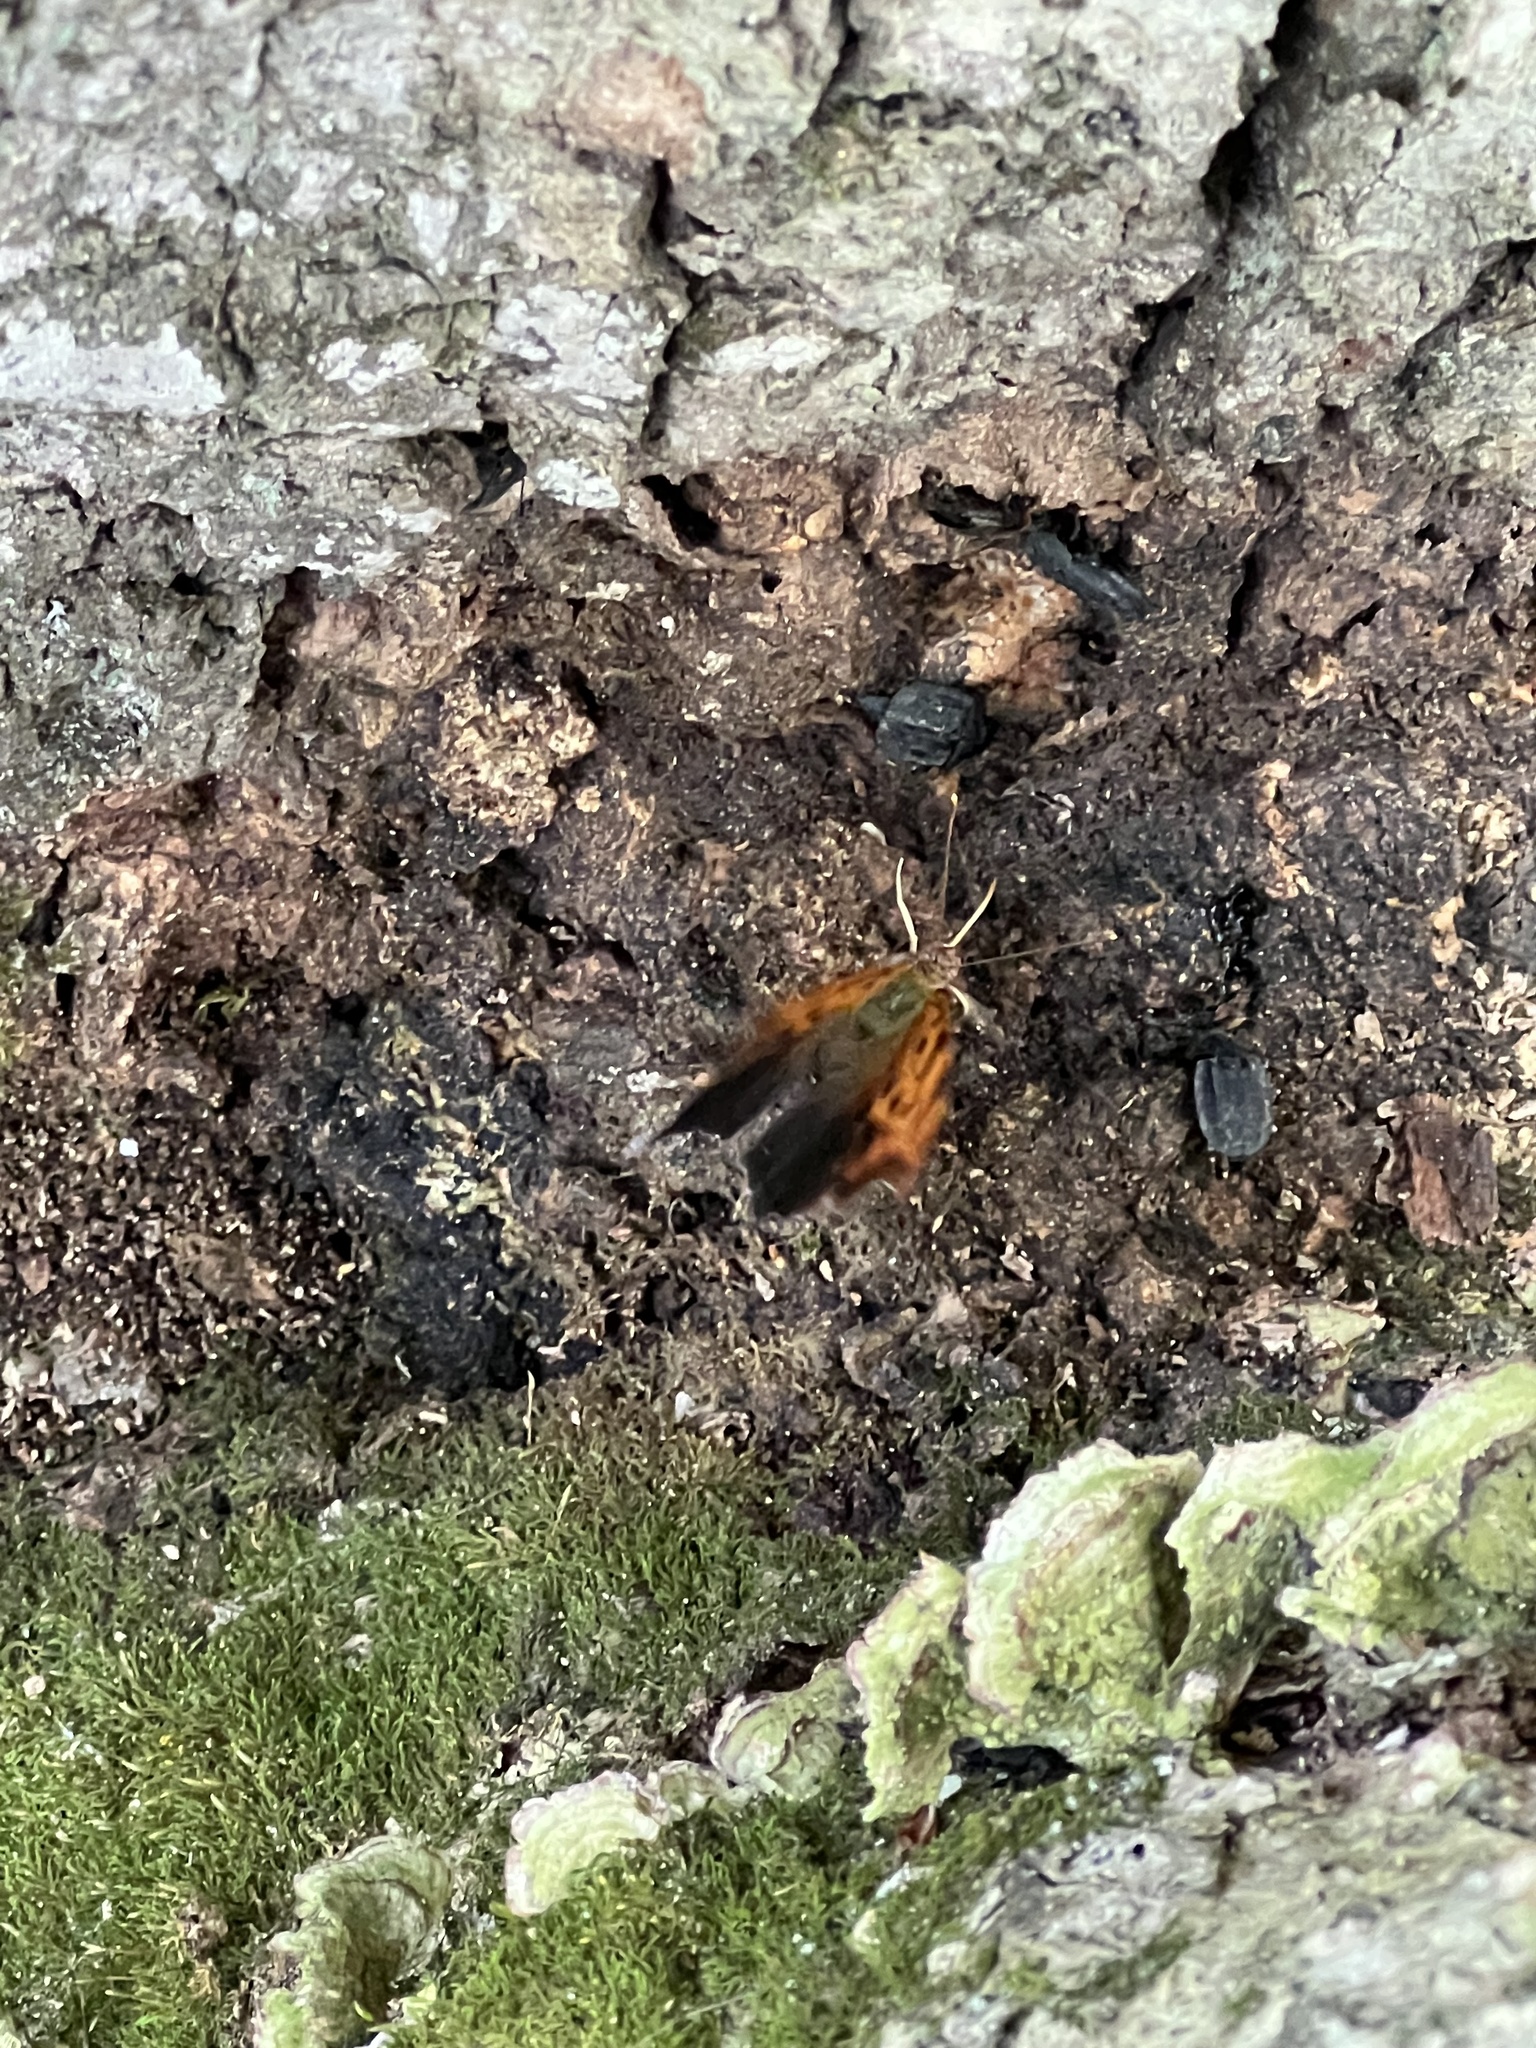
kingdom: Animalia
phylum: Arthropoda
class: Insecta
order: Lepidoptera
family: Nymphalidae
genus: Polygonia
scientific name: Polygonia interrogationis
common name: Question mark
